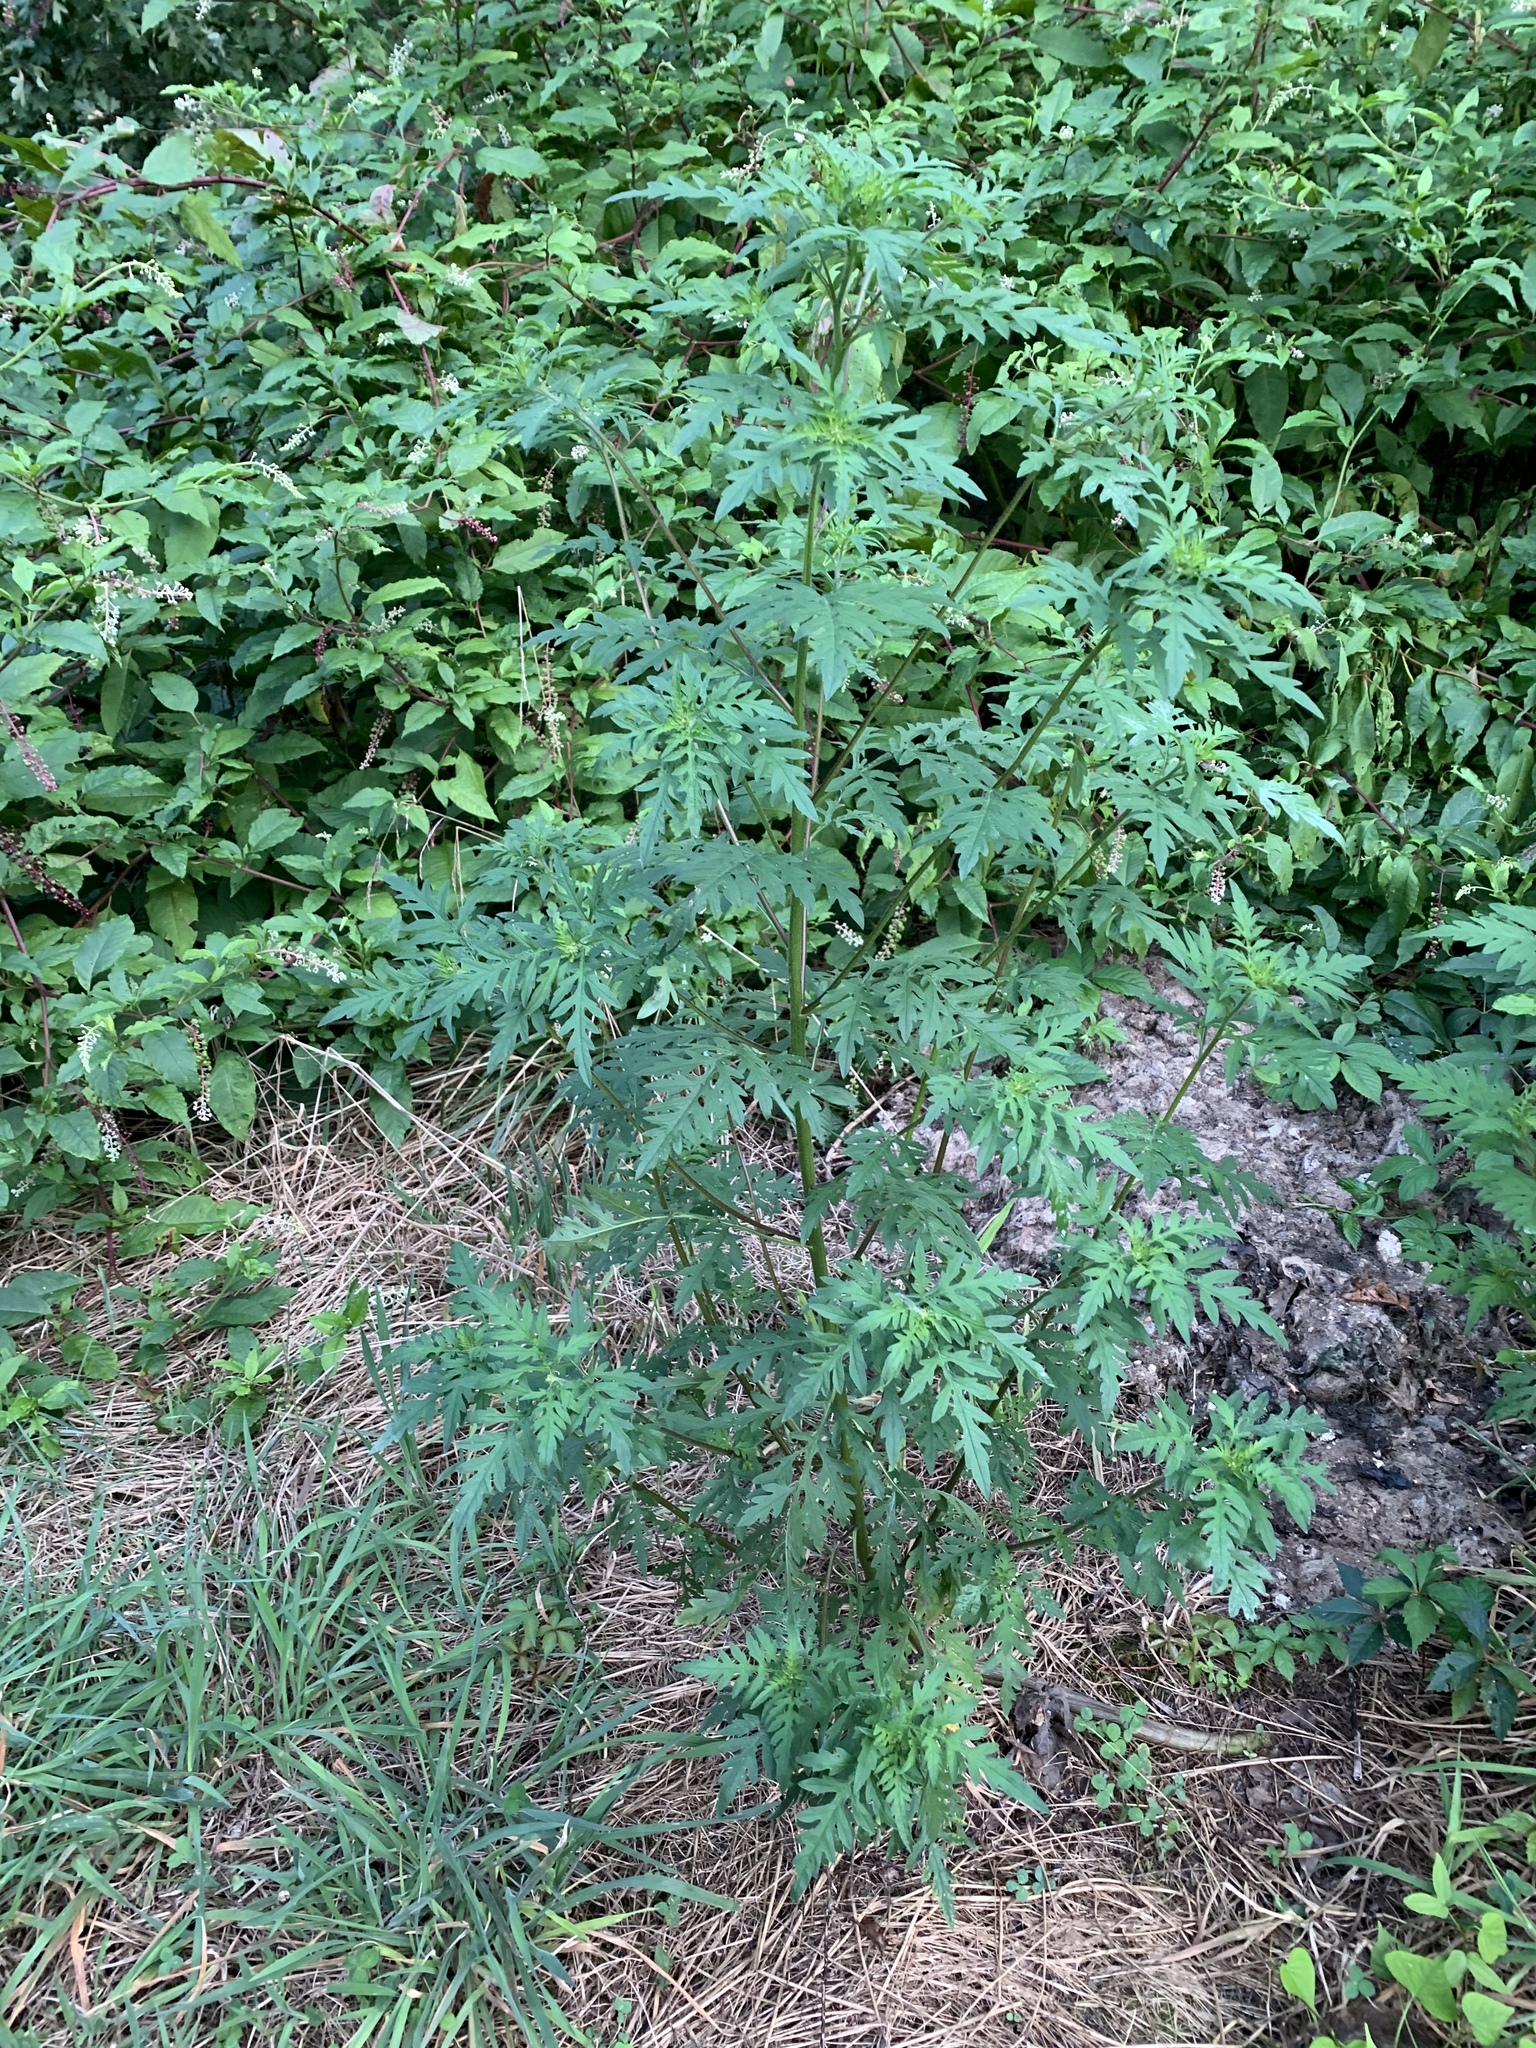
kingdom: Plantae
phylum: Tracheophyta
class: Magnoliopsida
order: Asterales
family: Asteraceae
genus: Ambrosia
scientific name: Ambrosia artemisiifolia
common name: Annual ragweed
